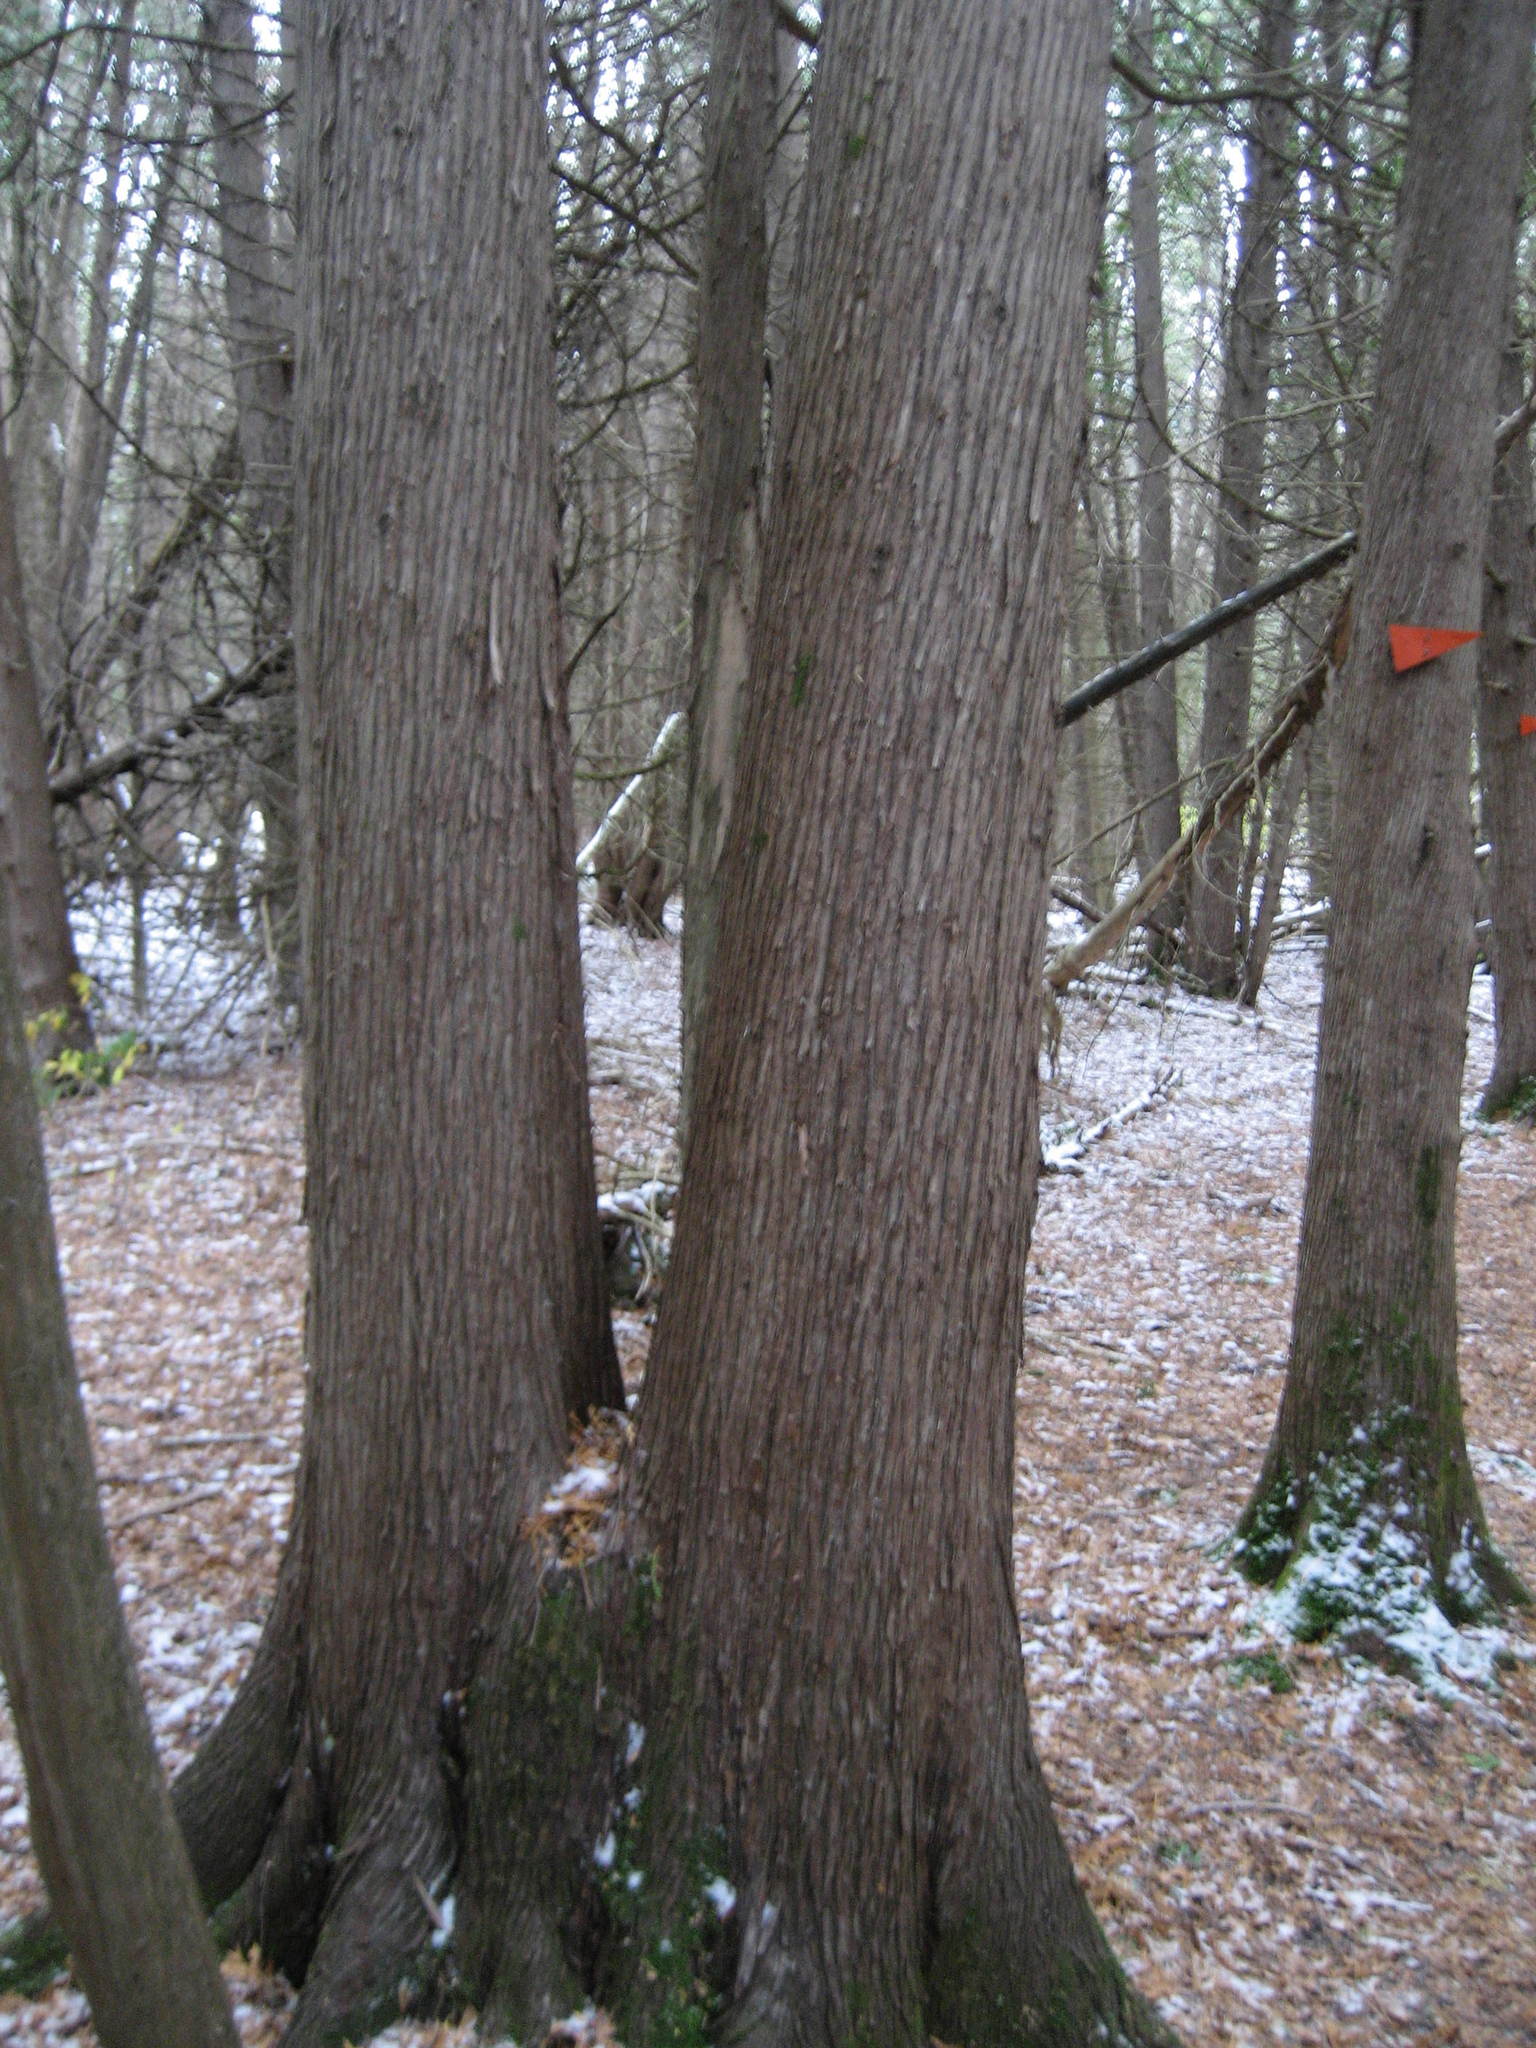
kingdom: Plantae
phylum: Tracheophyta
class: Pinopsida
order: Pinales
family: Cupressaceae
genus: Thuja
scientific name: Thuja occidentalis
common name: Northern white-cedar
